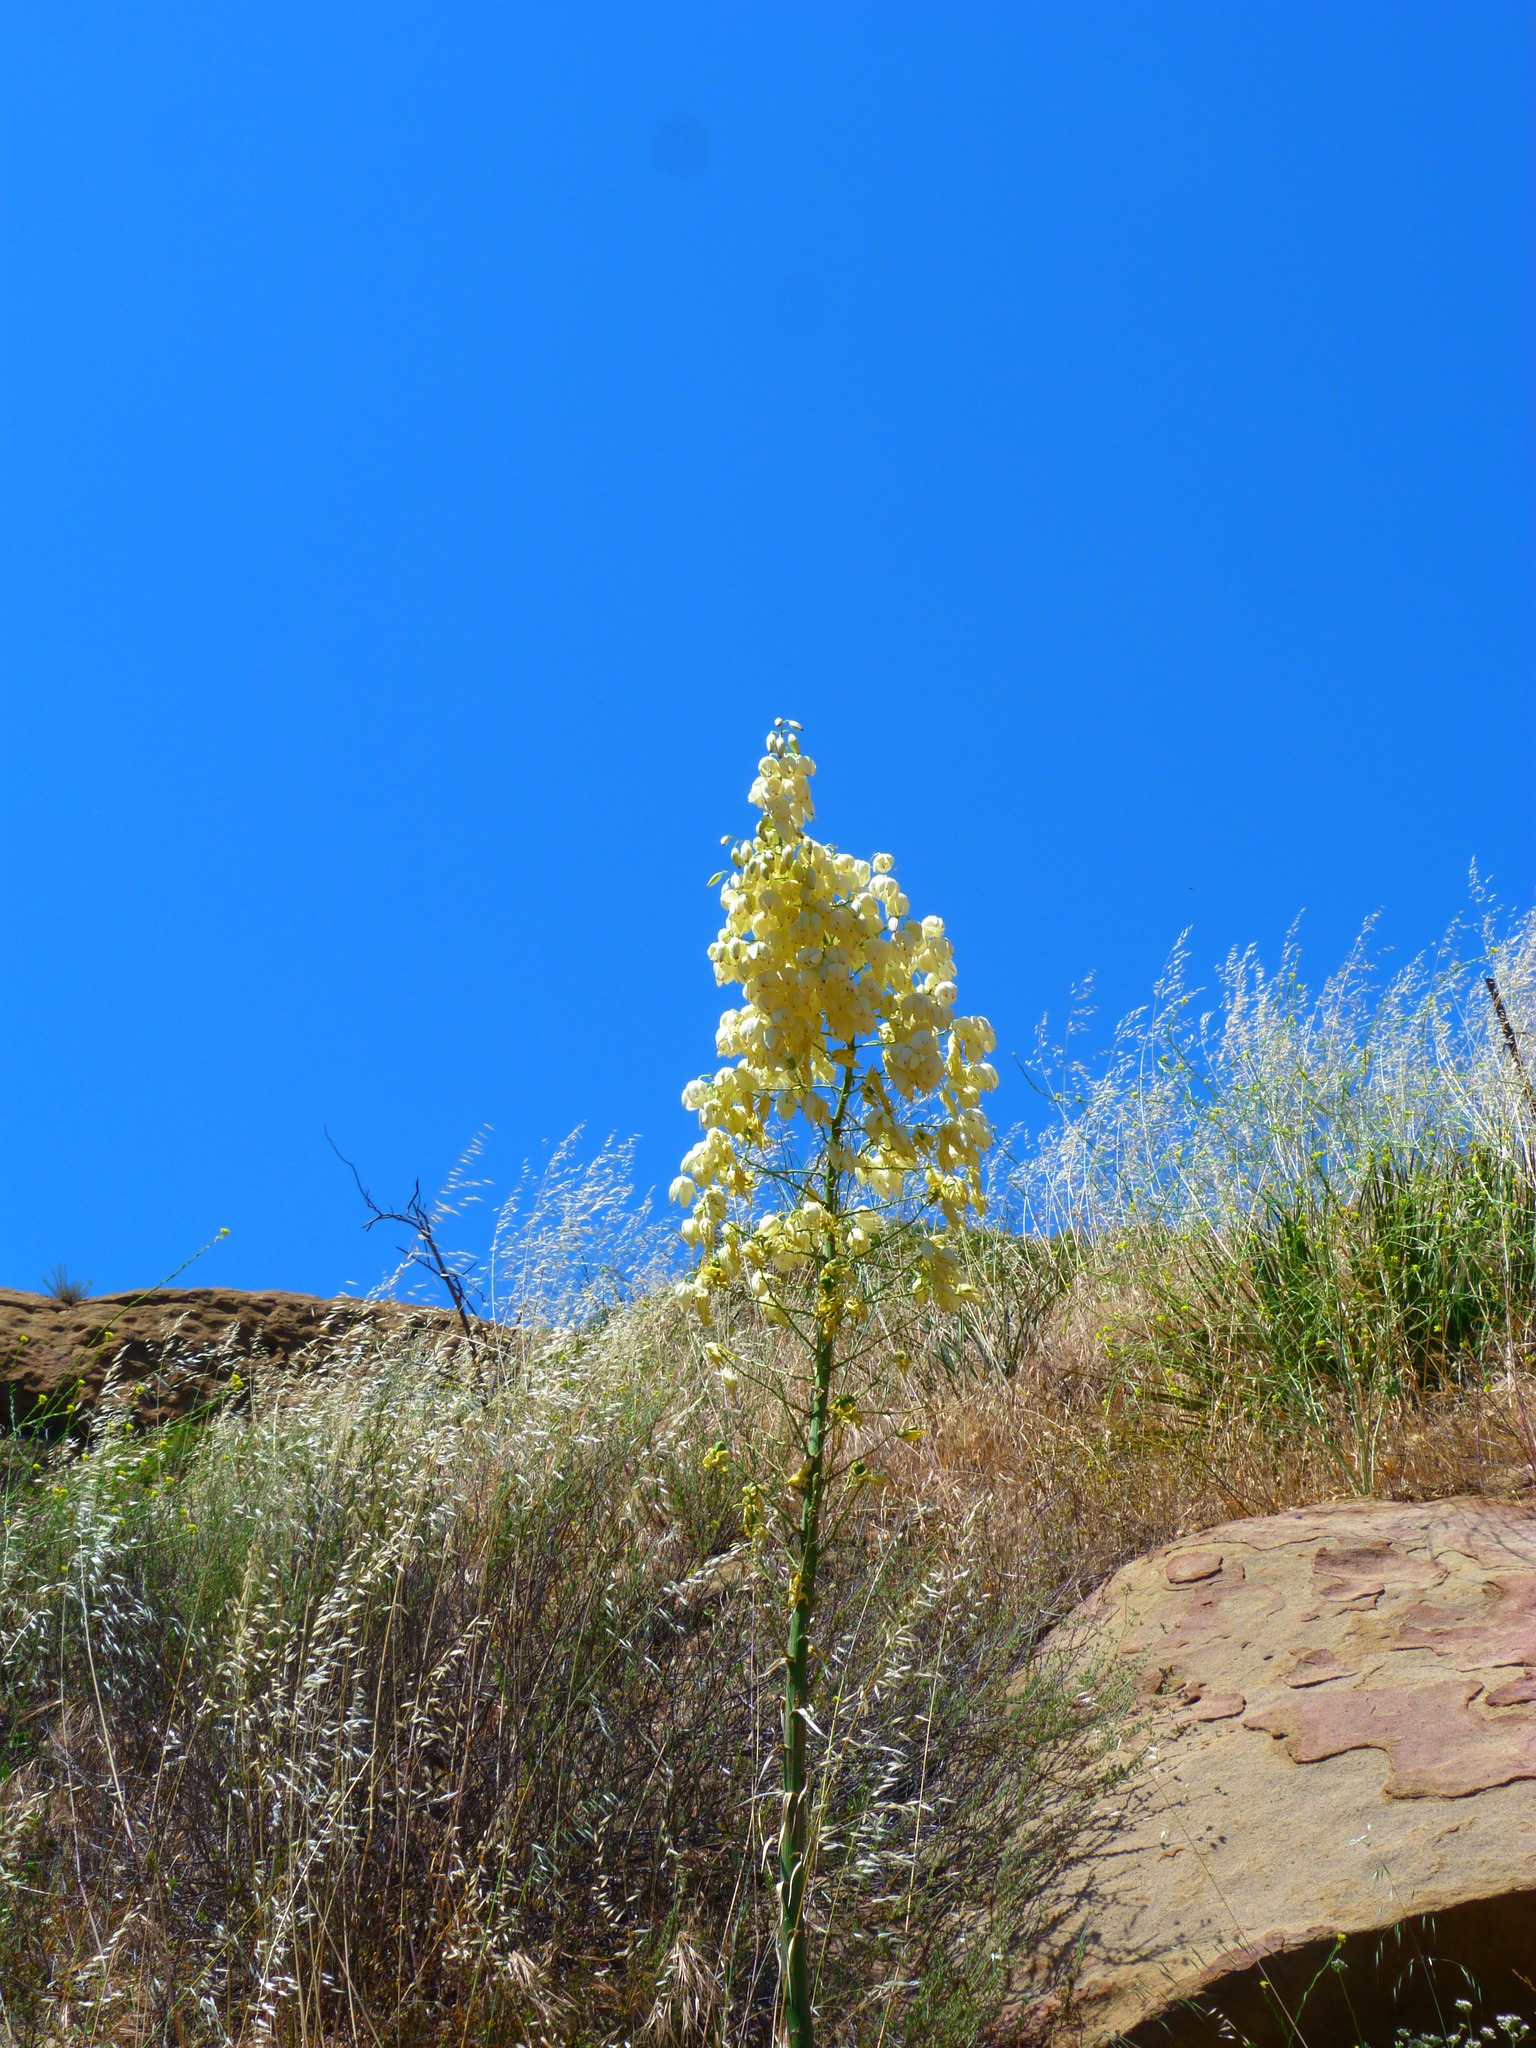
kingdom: Plantae
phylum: Tracheophyta
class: Liliopsida
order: Asparagales
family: Asparagaceae
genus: Hesperoyucca
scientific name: Hesperoyucca whipplei
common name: Our lord's-candle
